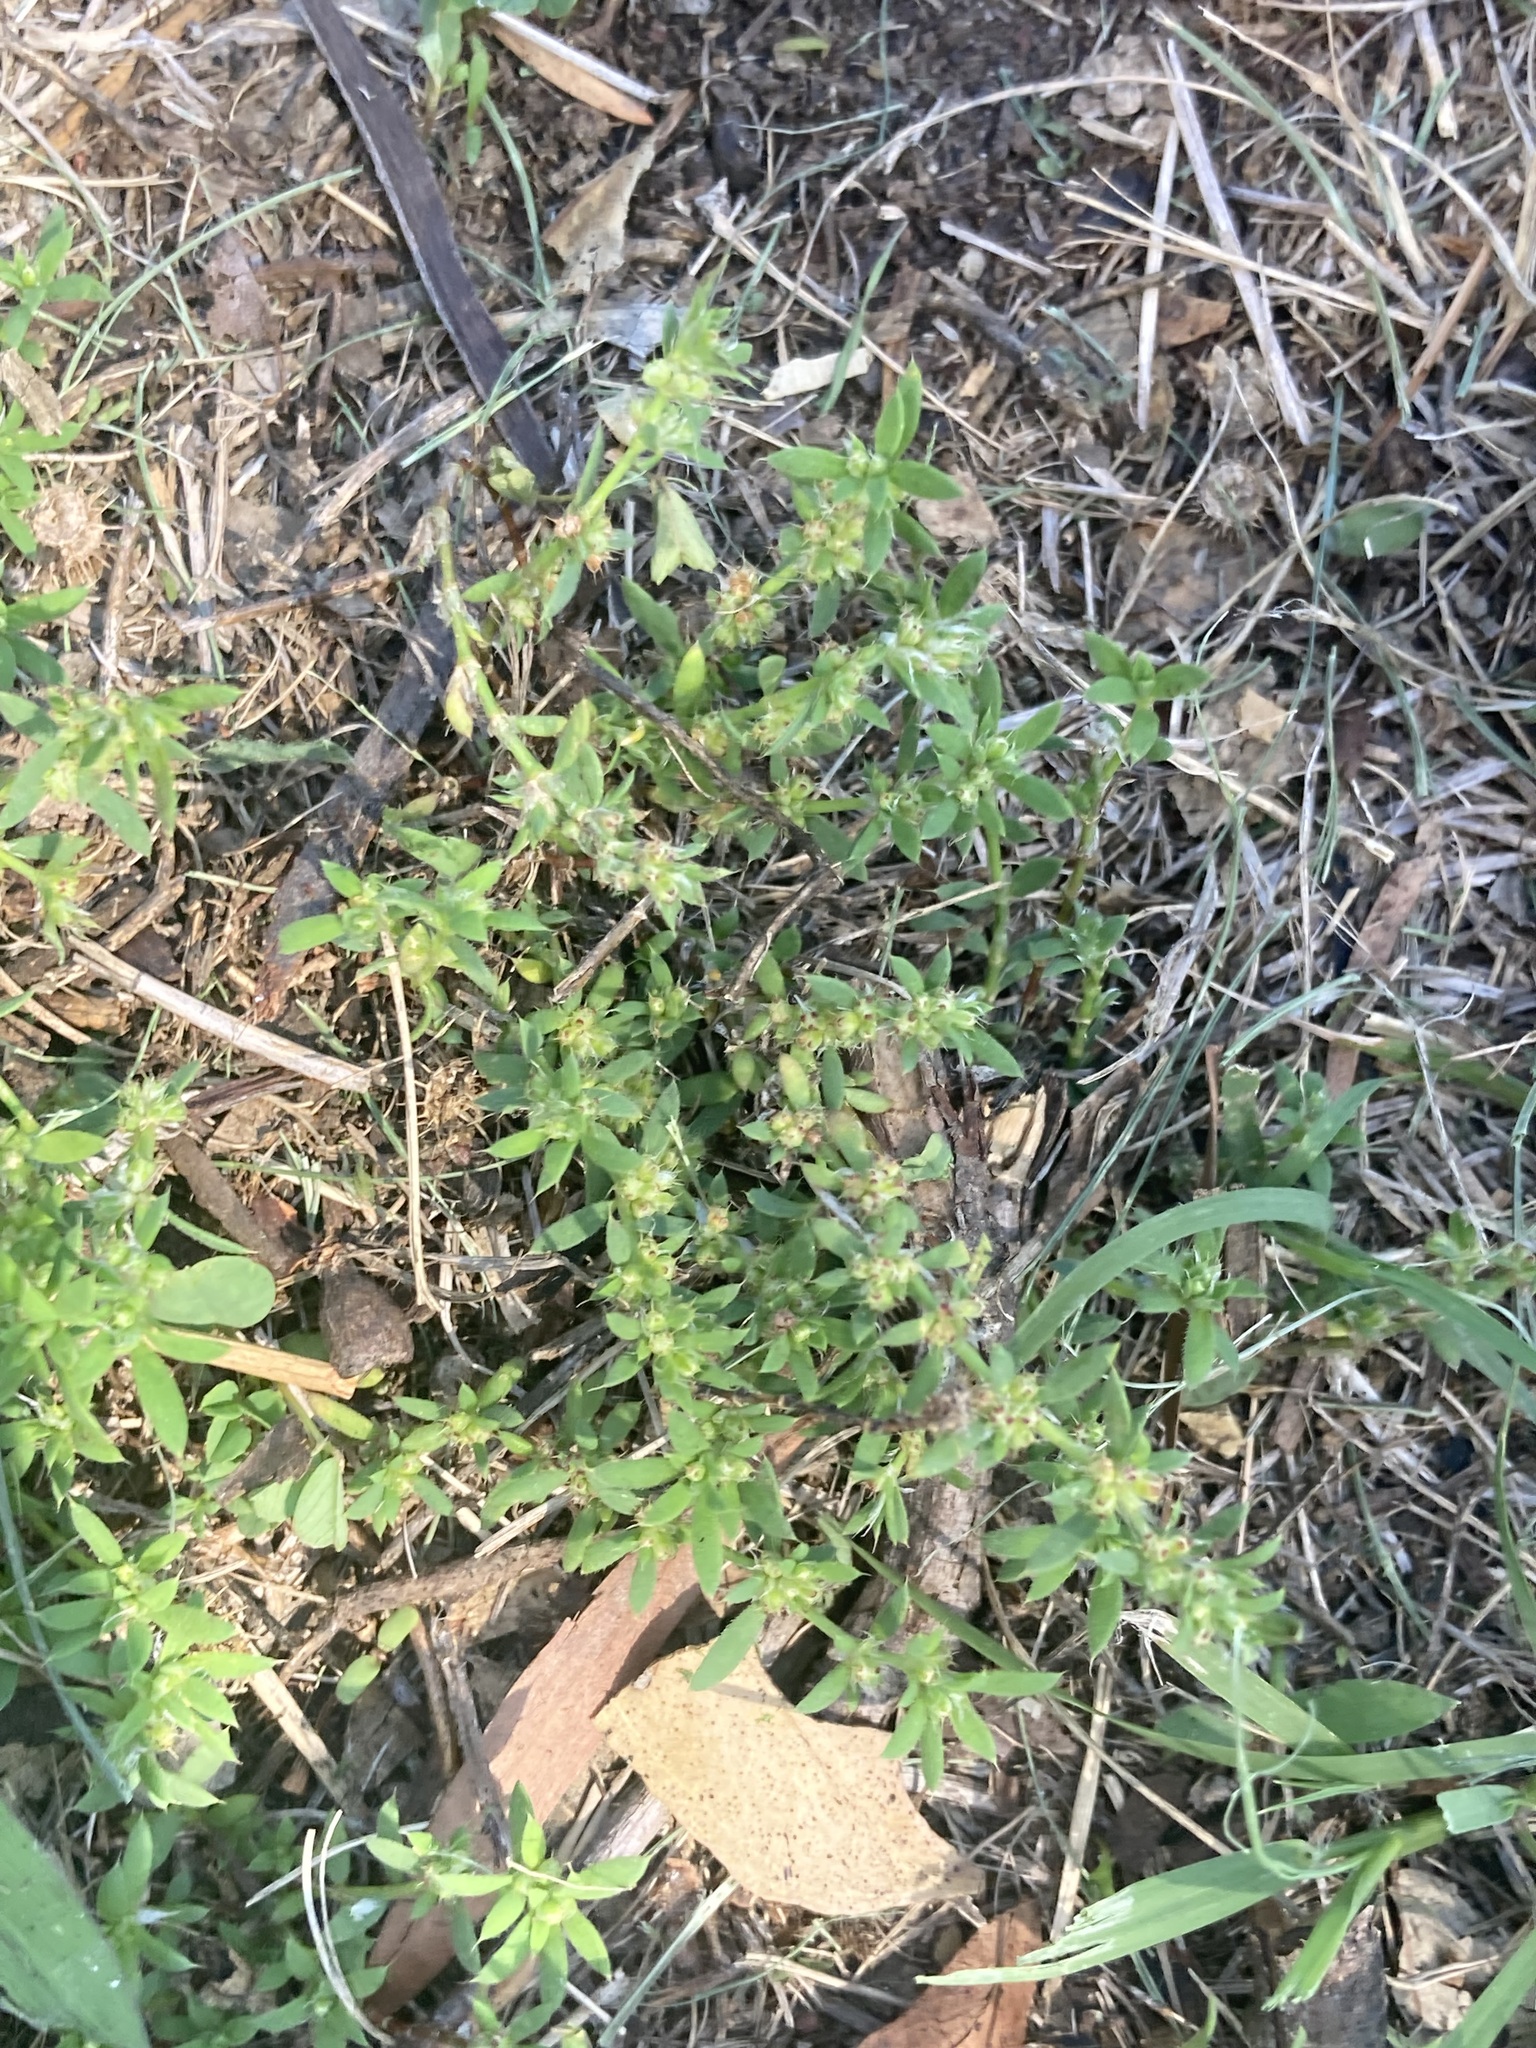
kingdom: Plantae
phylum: Tracheophyta
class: Magnoliopsida
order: Caryophyllales
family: Caryophyllaceae
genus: Paronychia
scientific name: Paronychia brasiliana
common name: Brazilian whitlow
